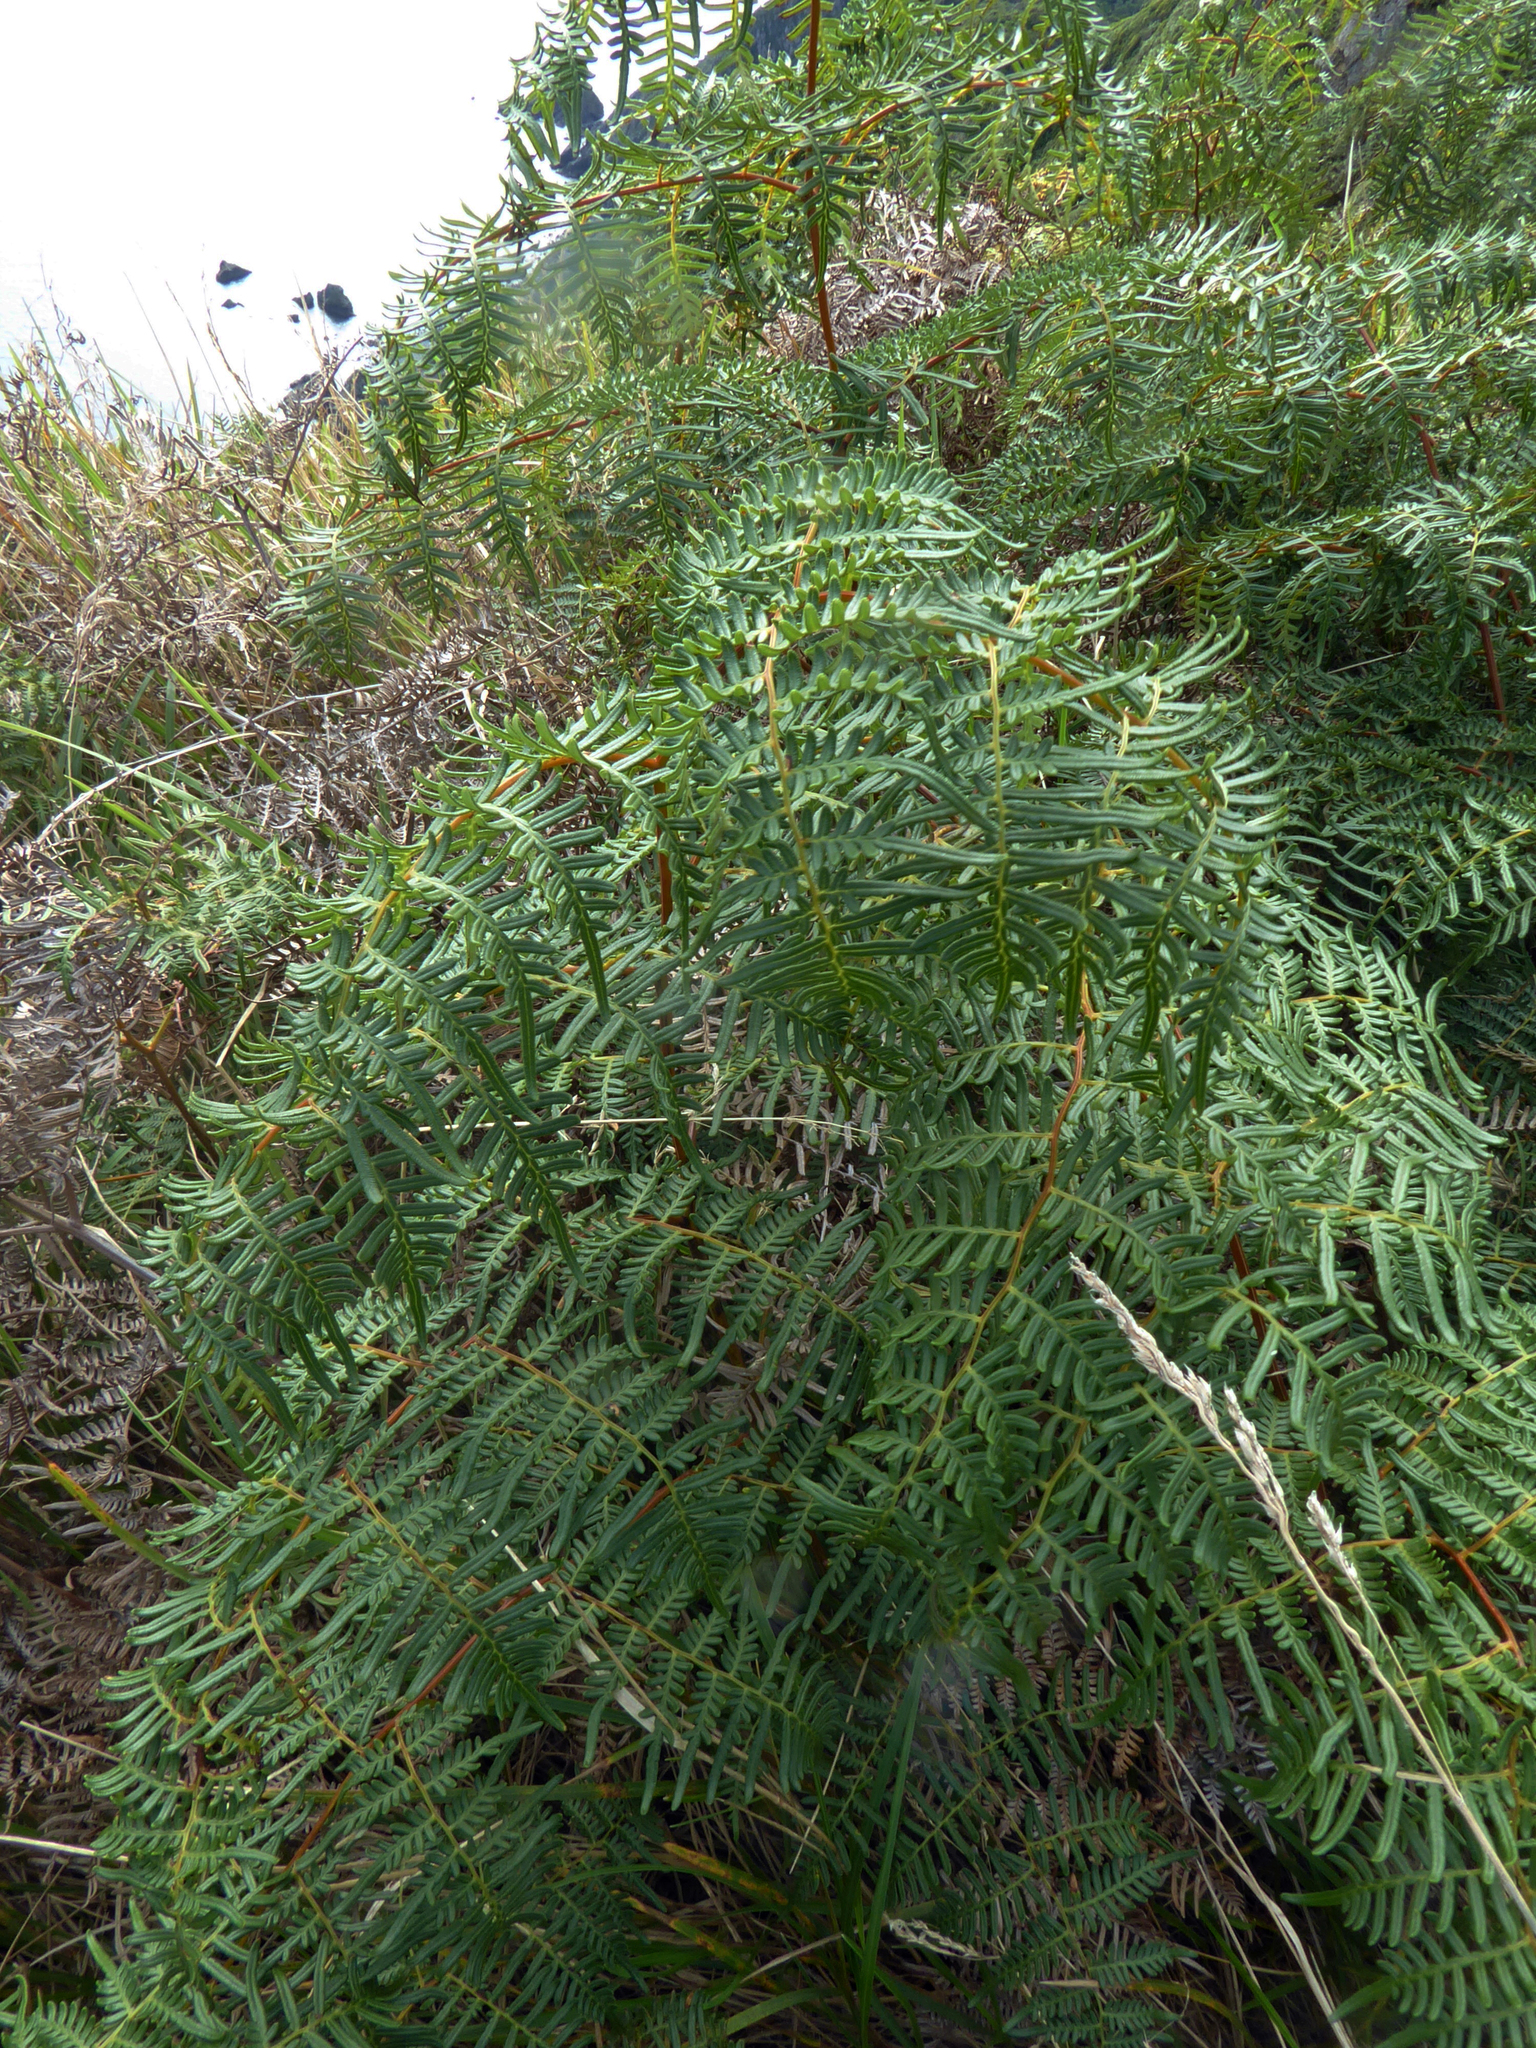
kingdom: Plantae
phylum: Tracheophyta
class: Polypodiopsida
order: Polypodiales
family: Dennstaedtiaceae
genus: Pteridium
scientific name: Pteridium esculentum
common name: Bracken fern
